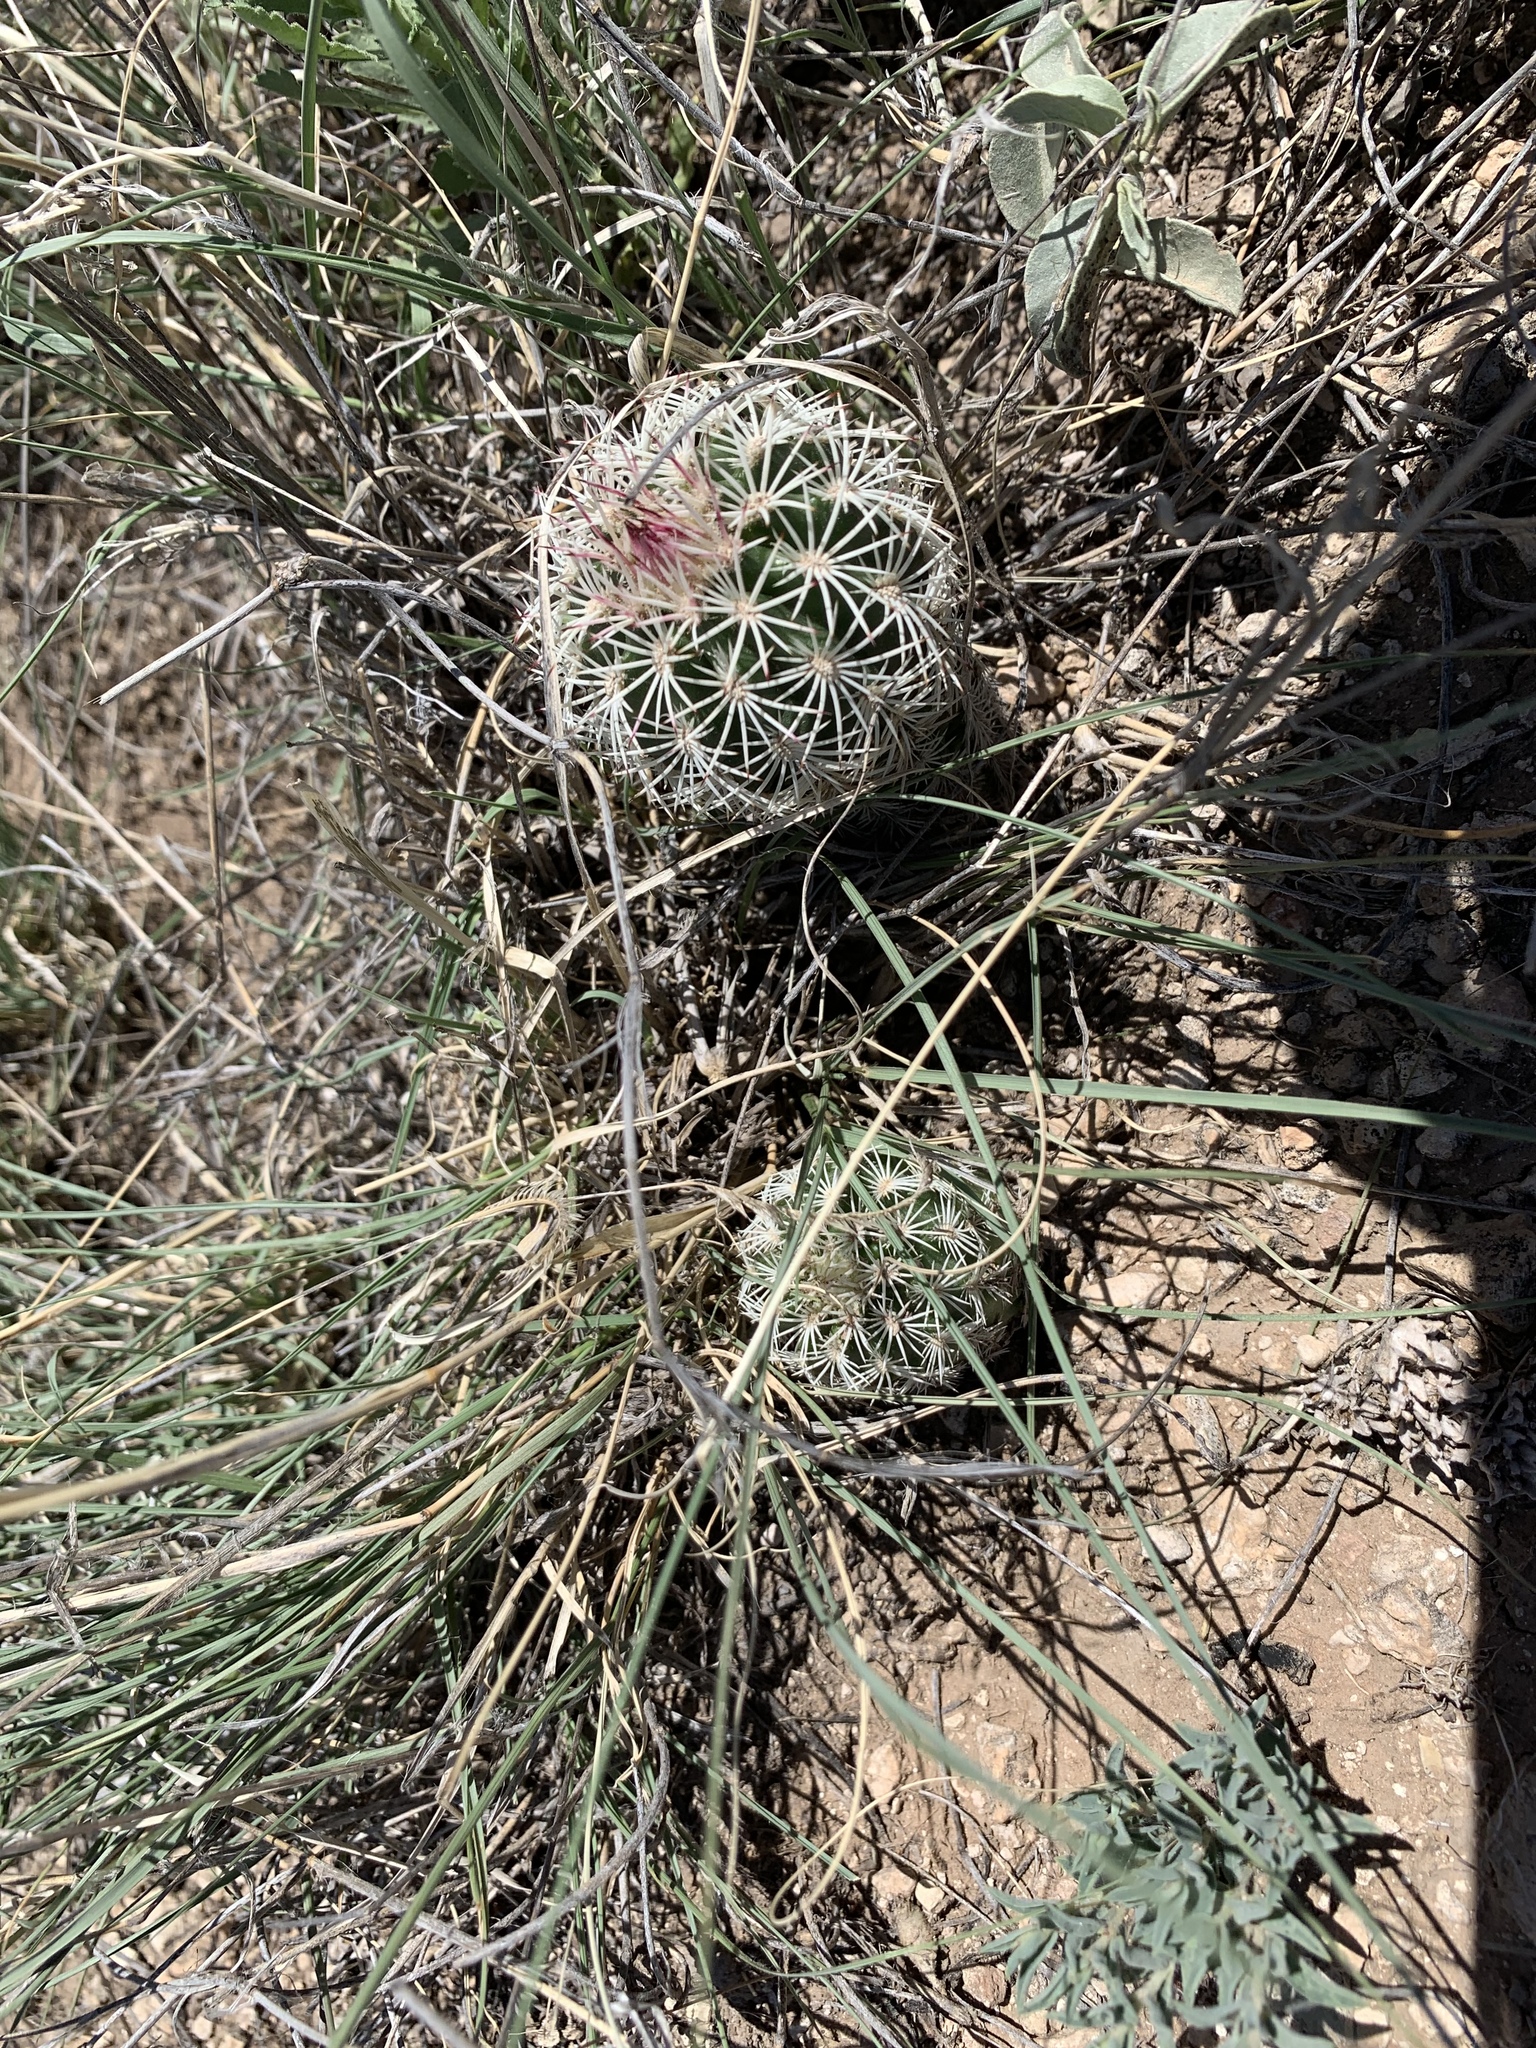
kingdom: Plantae
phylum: Tracheophyta
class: Magnoliopsida
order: Caryophyllales
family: Cactaceae
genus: Echinocereus
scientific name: Echinocereus viridiflorus
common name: Nylon hedgehog cactus
